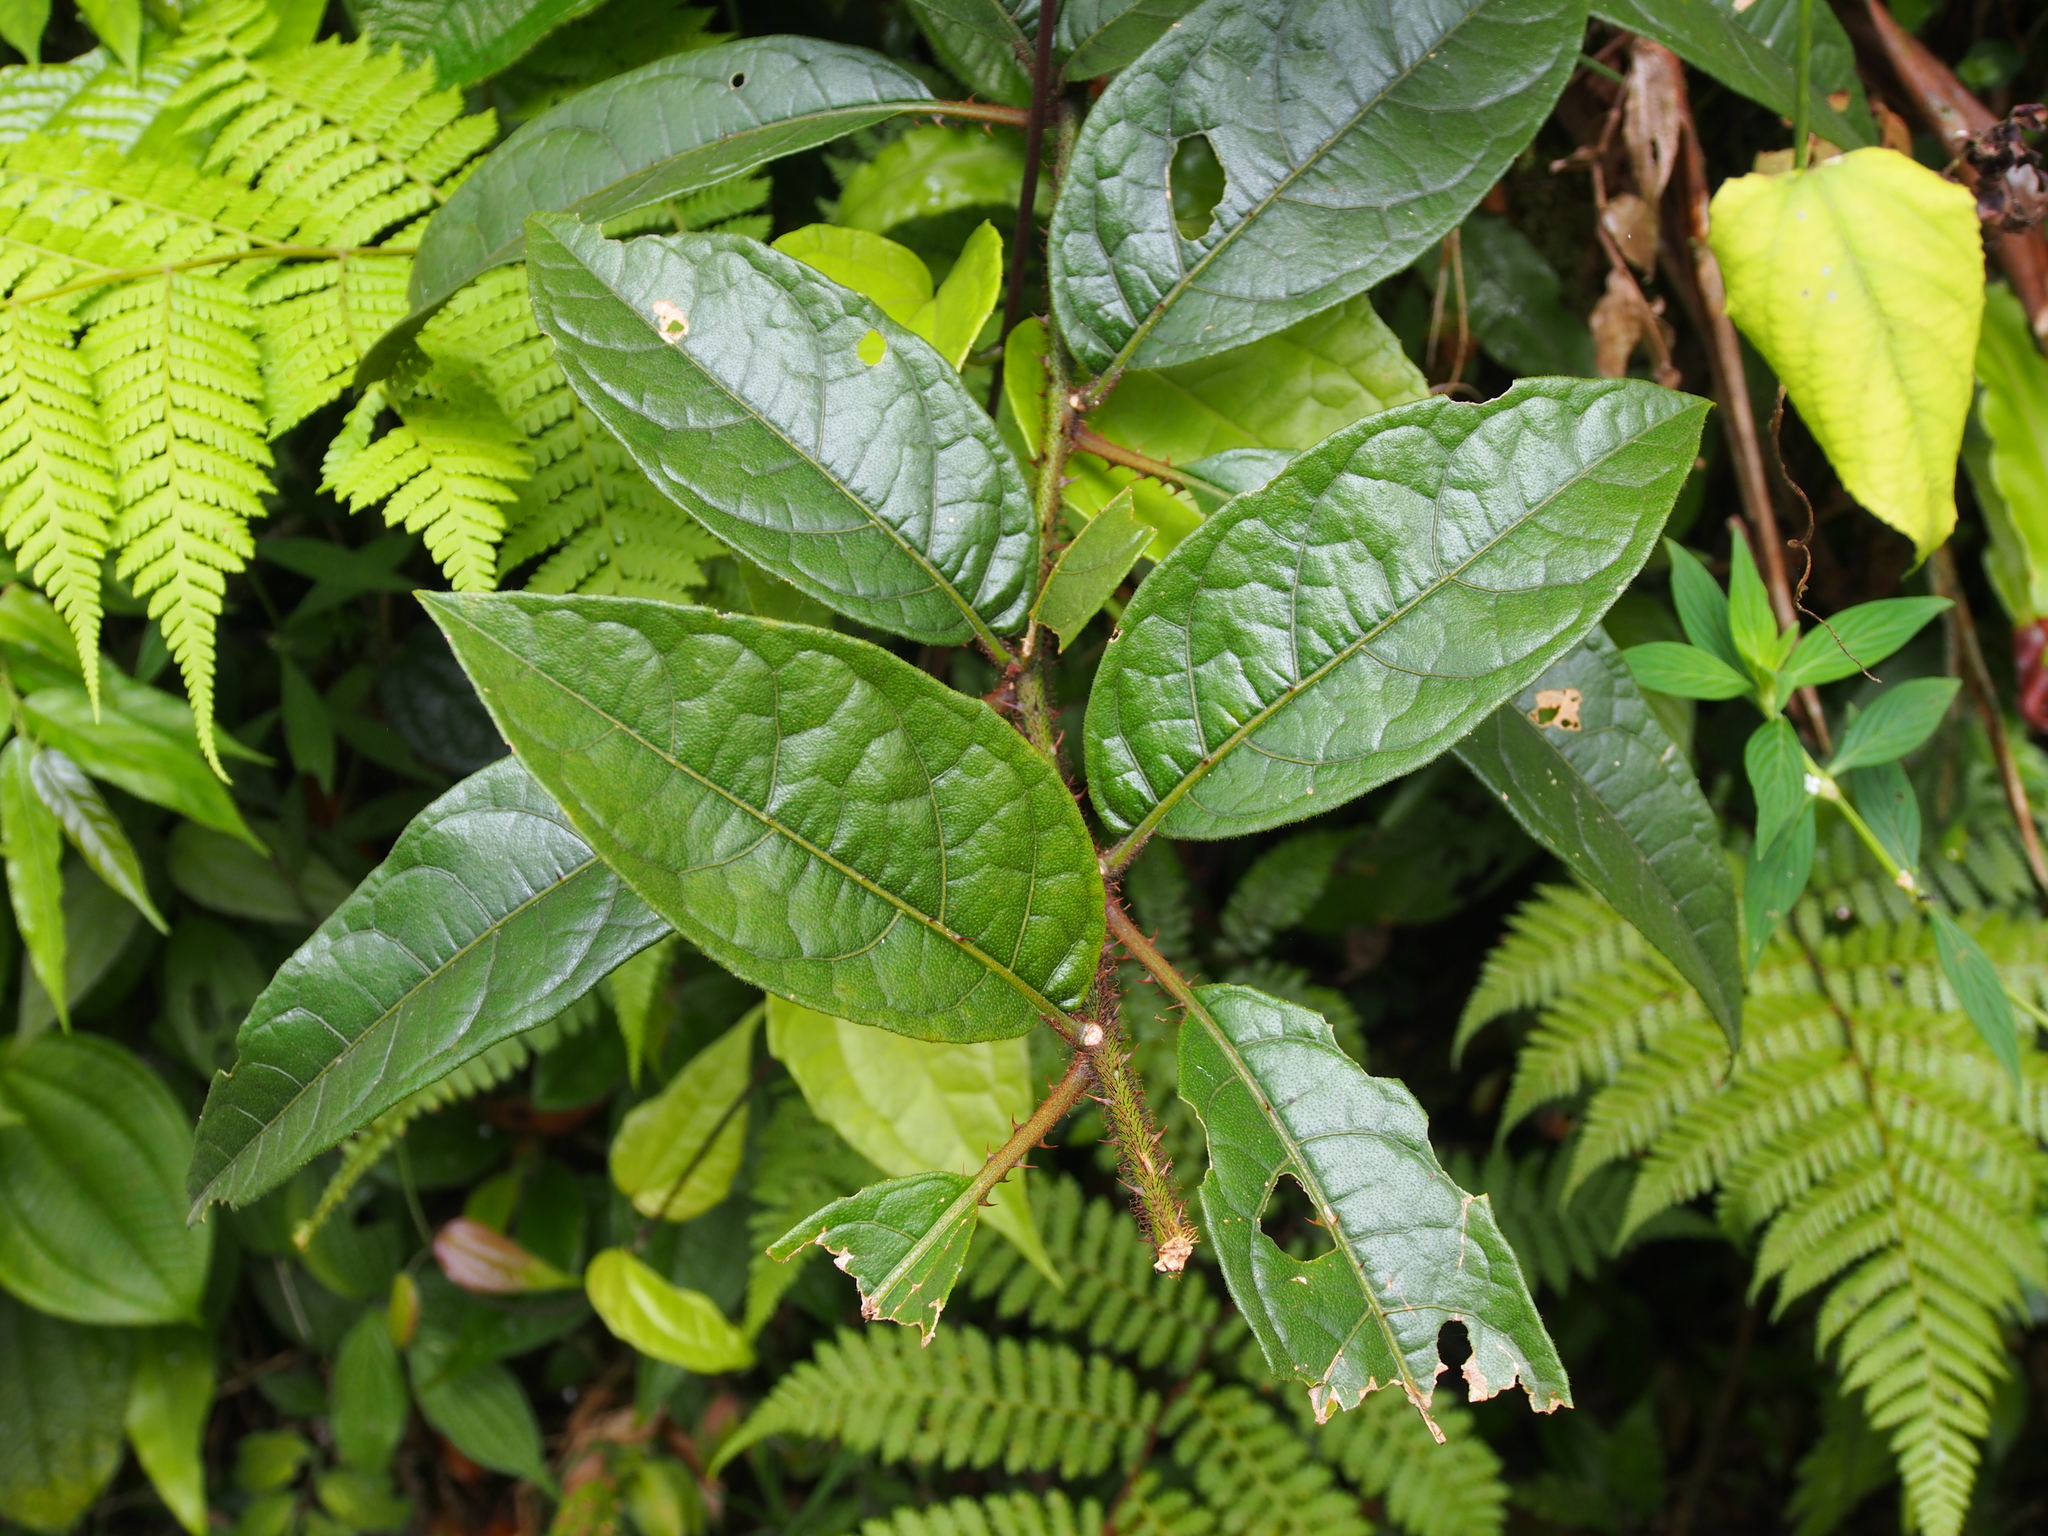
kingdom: Plantae
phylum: Tracheophyta
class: Magnoliopsida
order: Solanales
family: Solanaceae
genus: Solanum
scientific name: Solanum aturense
